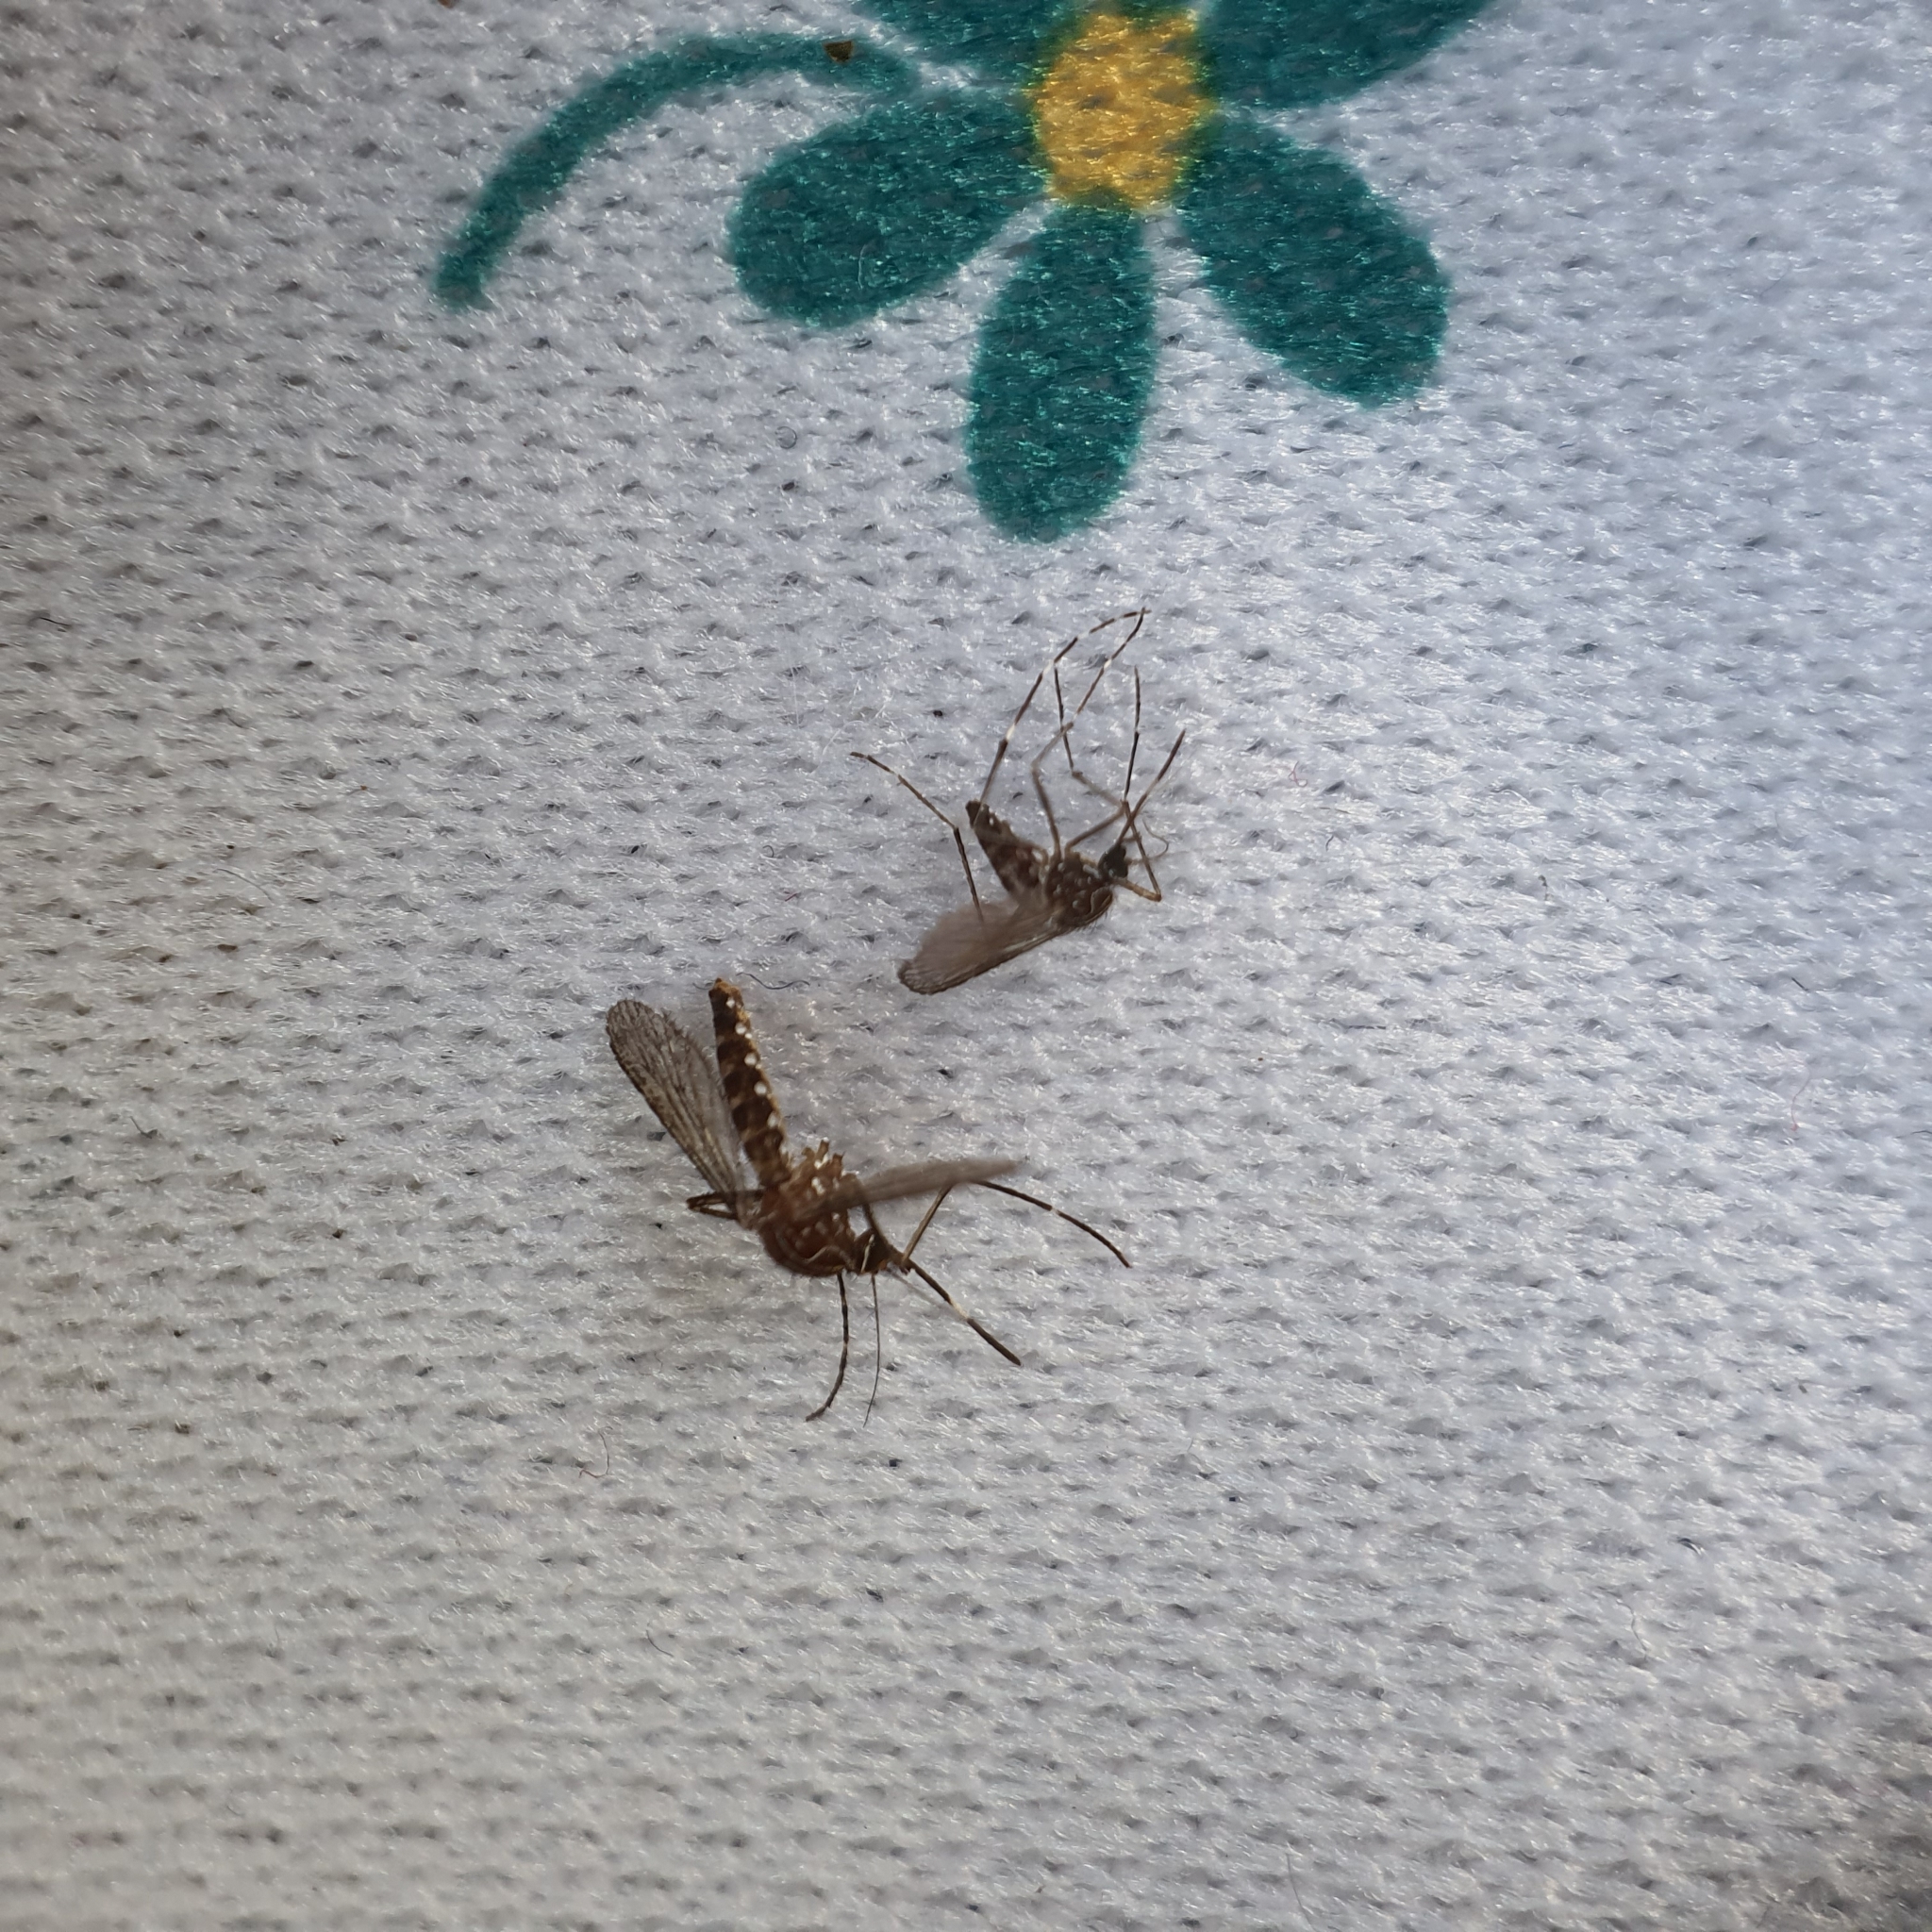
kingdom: Animalia
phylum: Arthropoda
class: Insecta
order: Diptera
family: Culicidae
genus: Aedes
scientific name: Aedes notoscriptus
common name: Australian backyard mosquito
